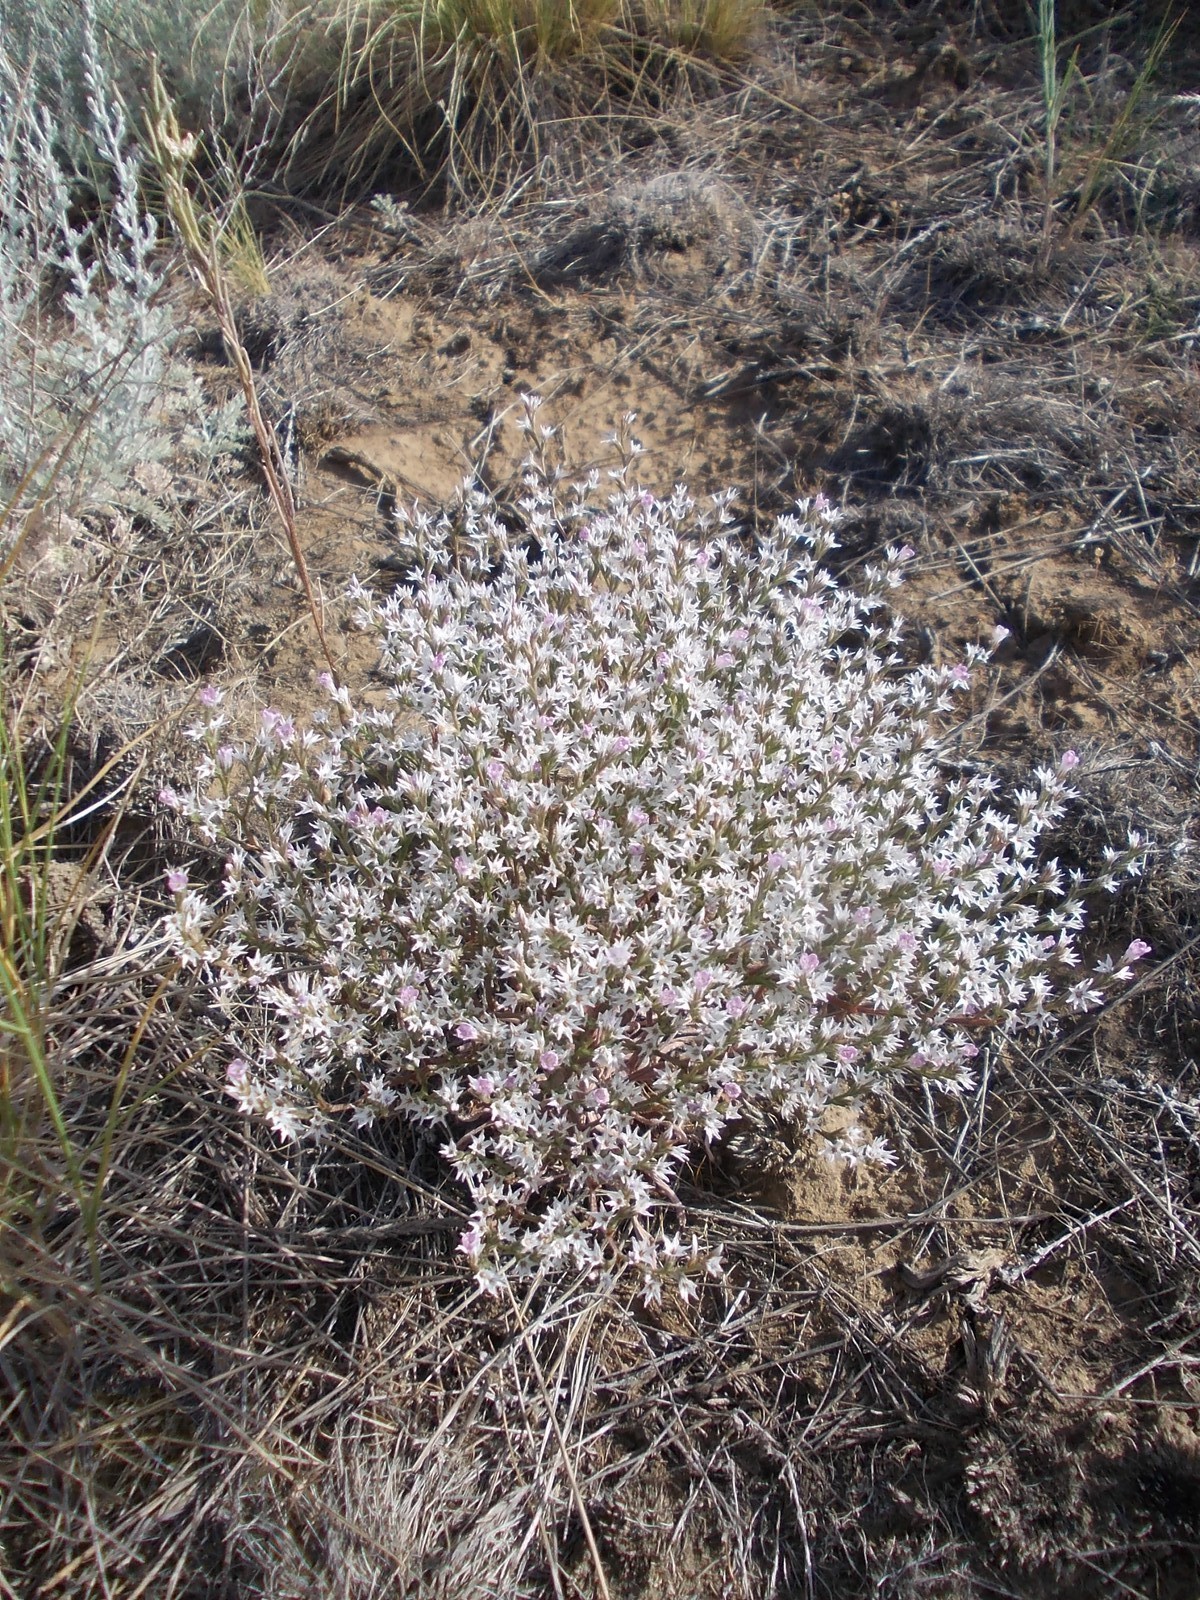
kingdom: Plantae
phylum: Tracheophyta
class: Magnoliopsida
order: Caryophyllales
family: Plumbaginaceae
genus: Goniolimon
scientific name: Goniolimon rubellum
